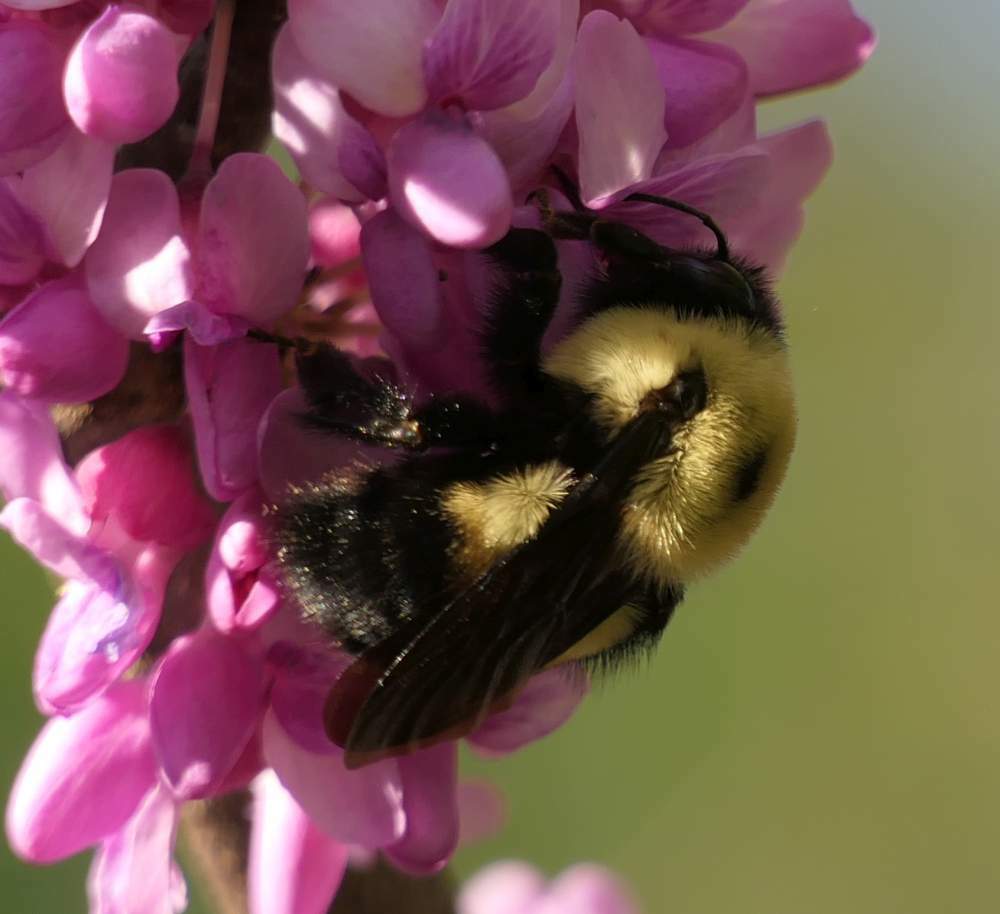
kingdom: Animalia
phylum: Arthropoda
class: Insecta
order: Hymenoptera
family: Apidae
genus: Bombus
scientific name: Bombus griseocollis
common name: Brown-belted bumble bee
